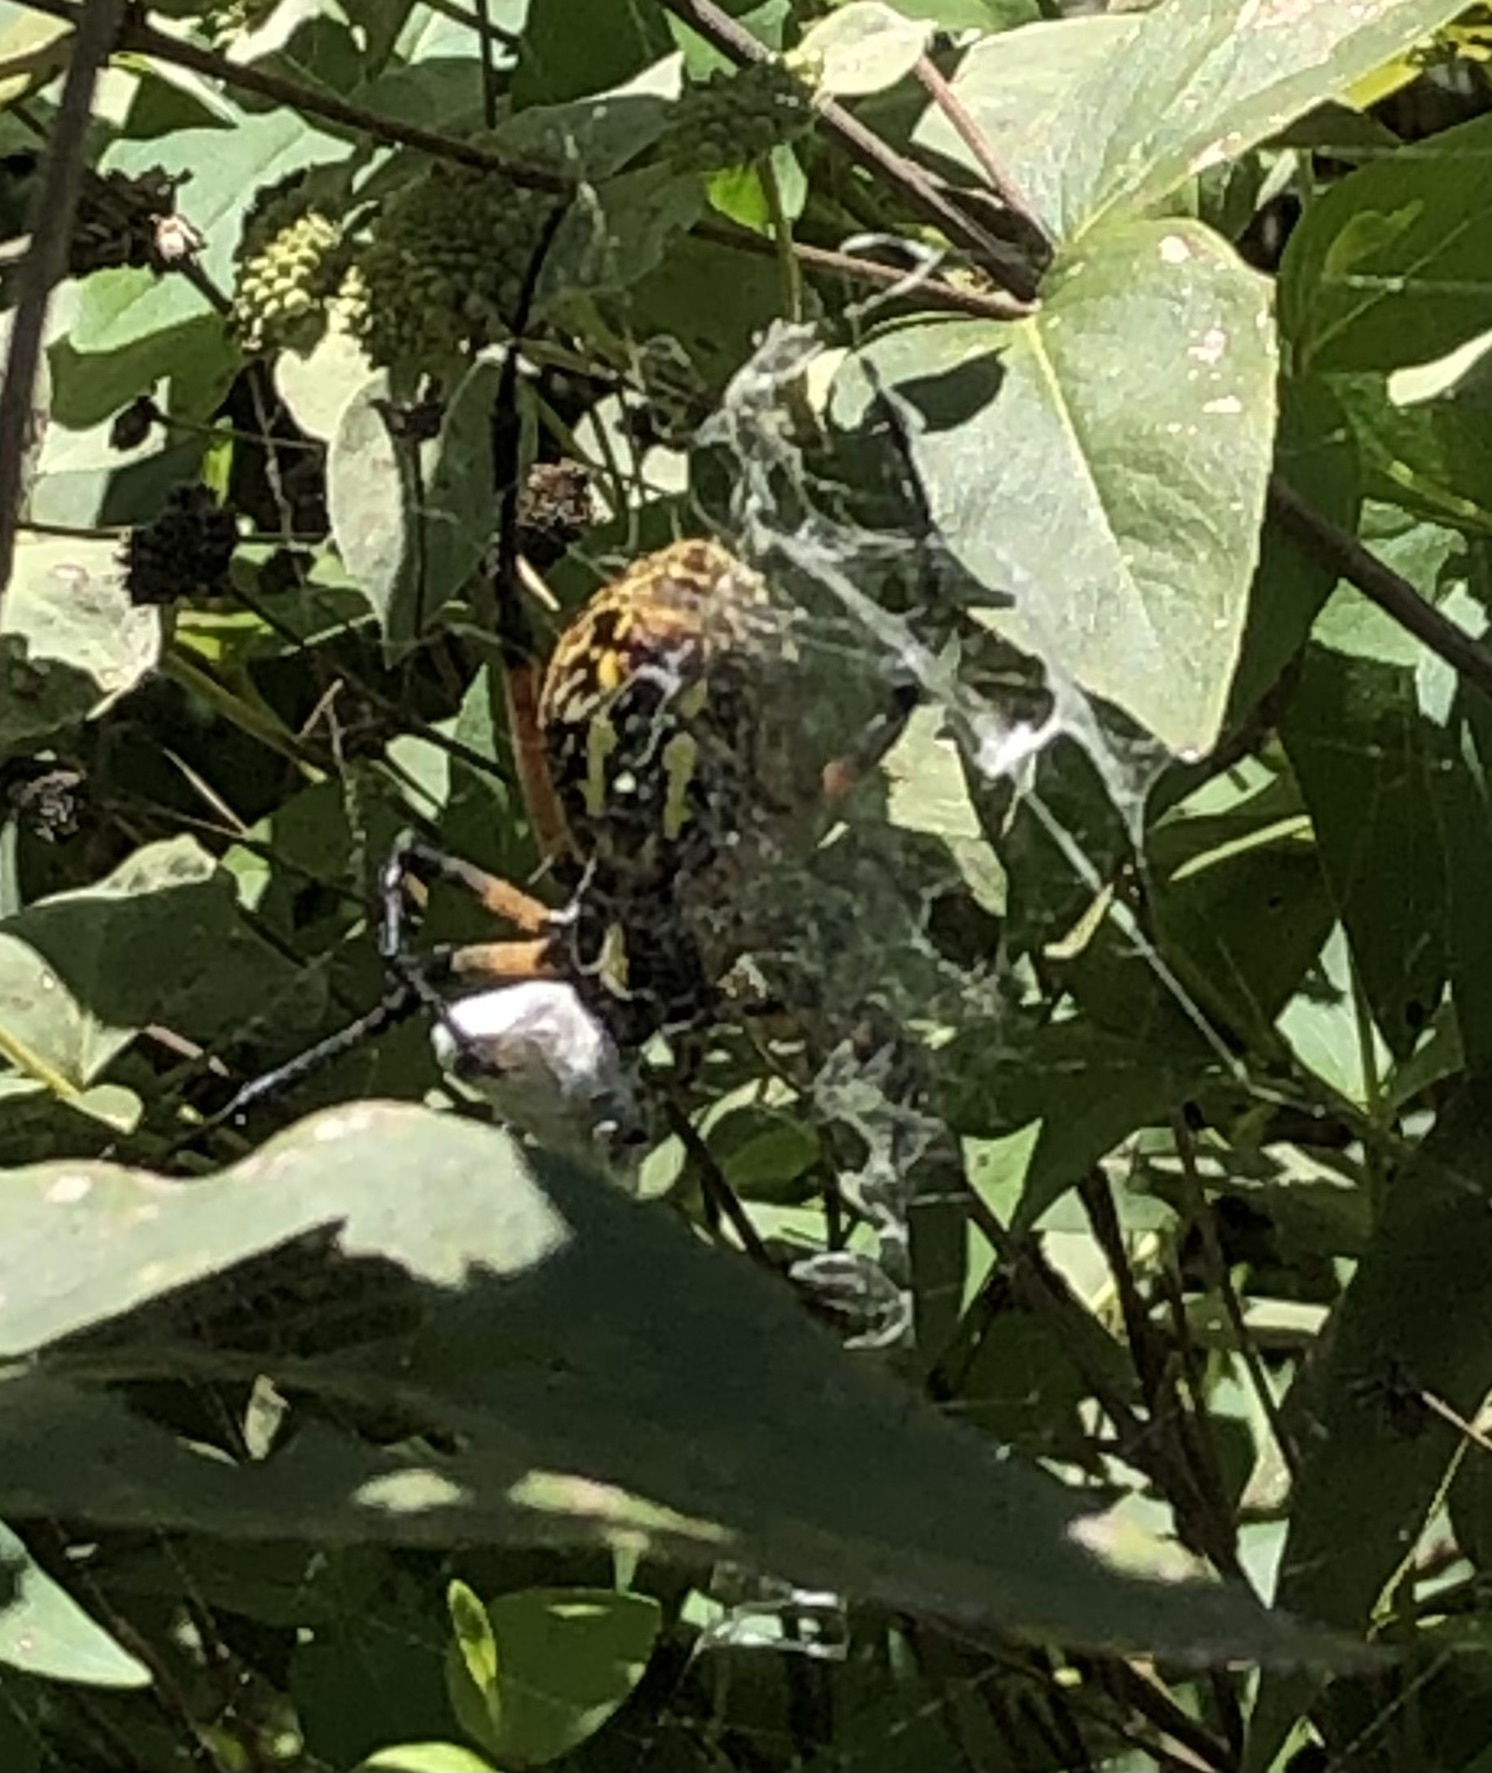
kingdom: Animalia
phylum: Arthropoda
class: Arachnida
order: Araneae
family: Araneidae
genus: Argiope
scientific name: Argiope aurantia
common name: Orb weavers
